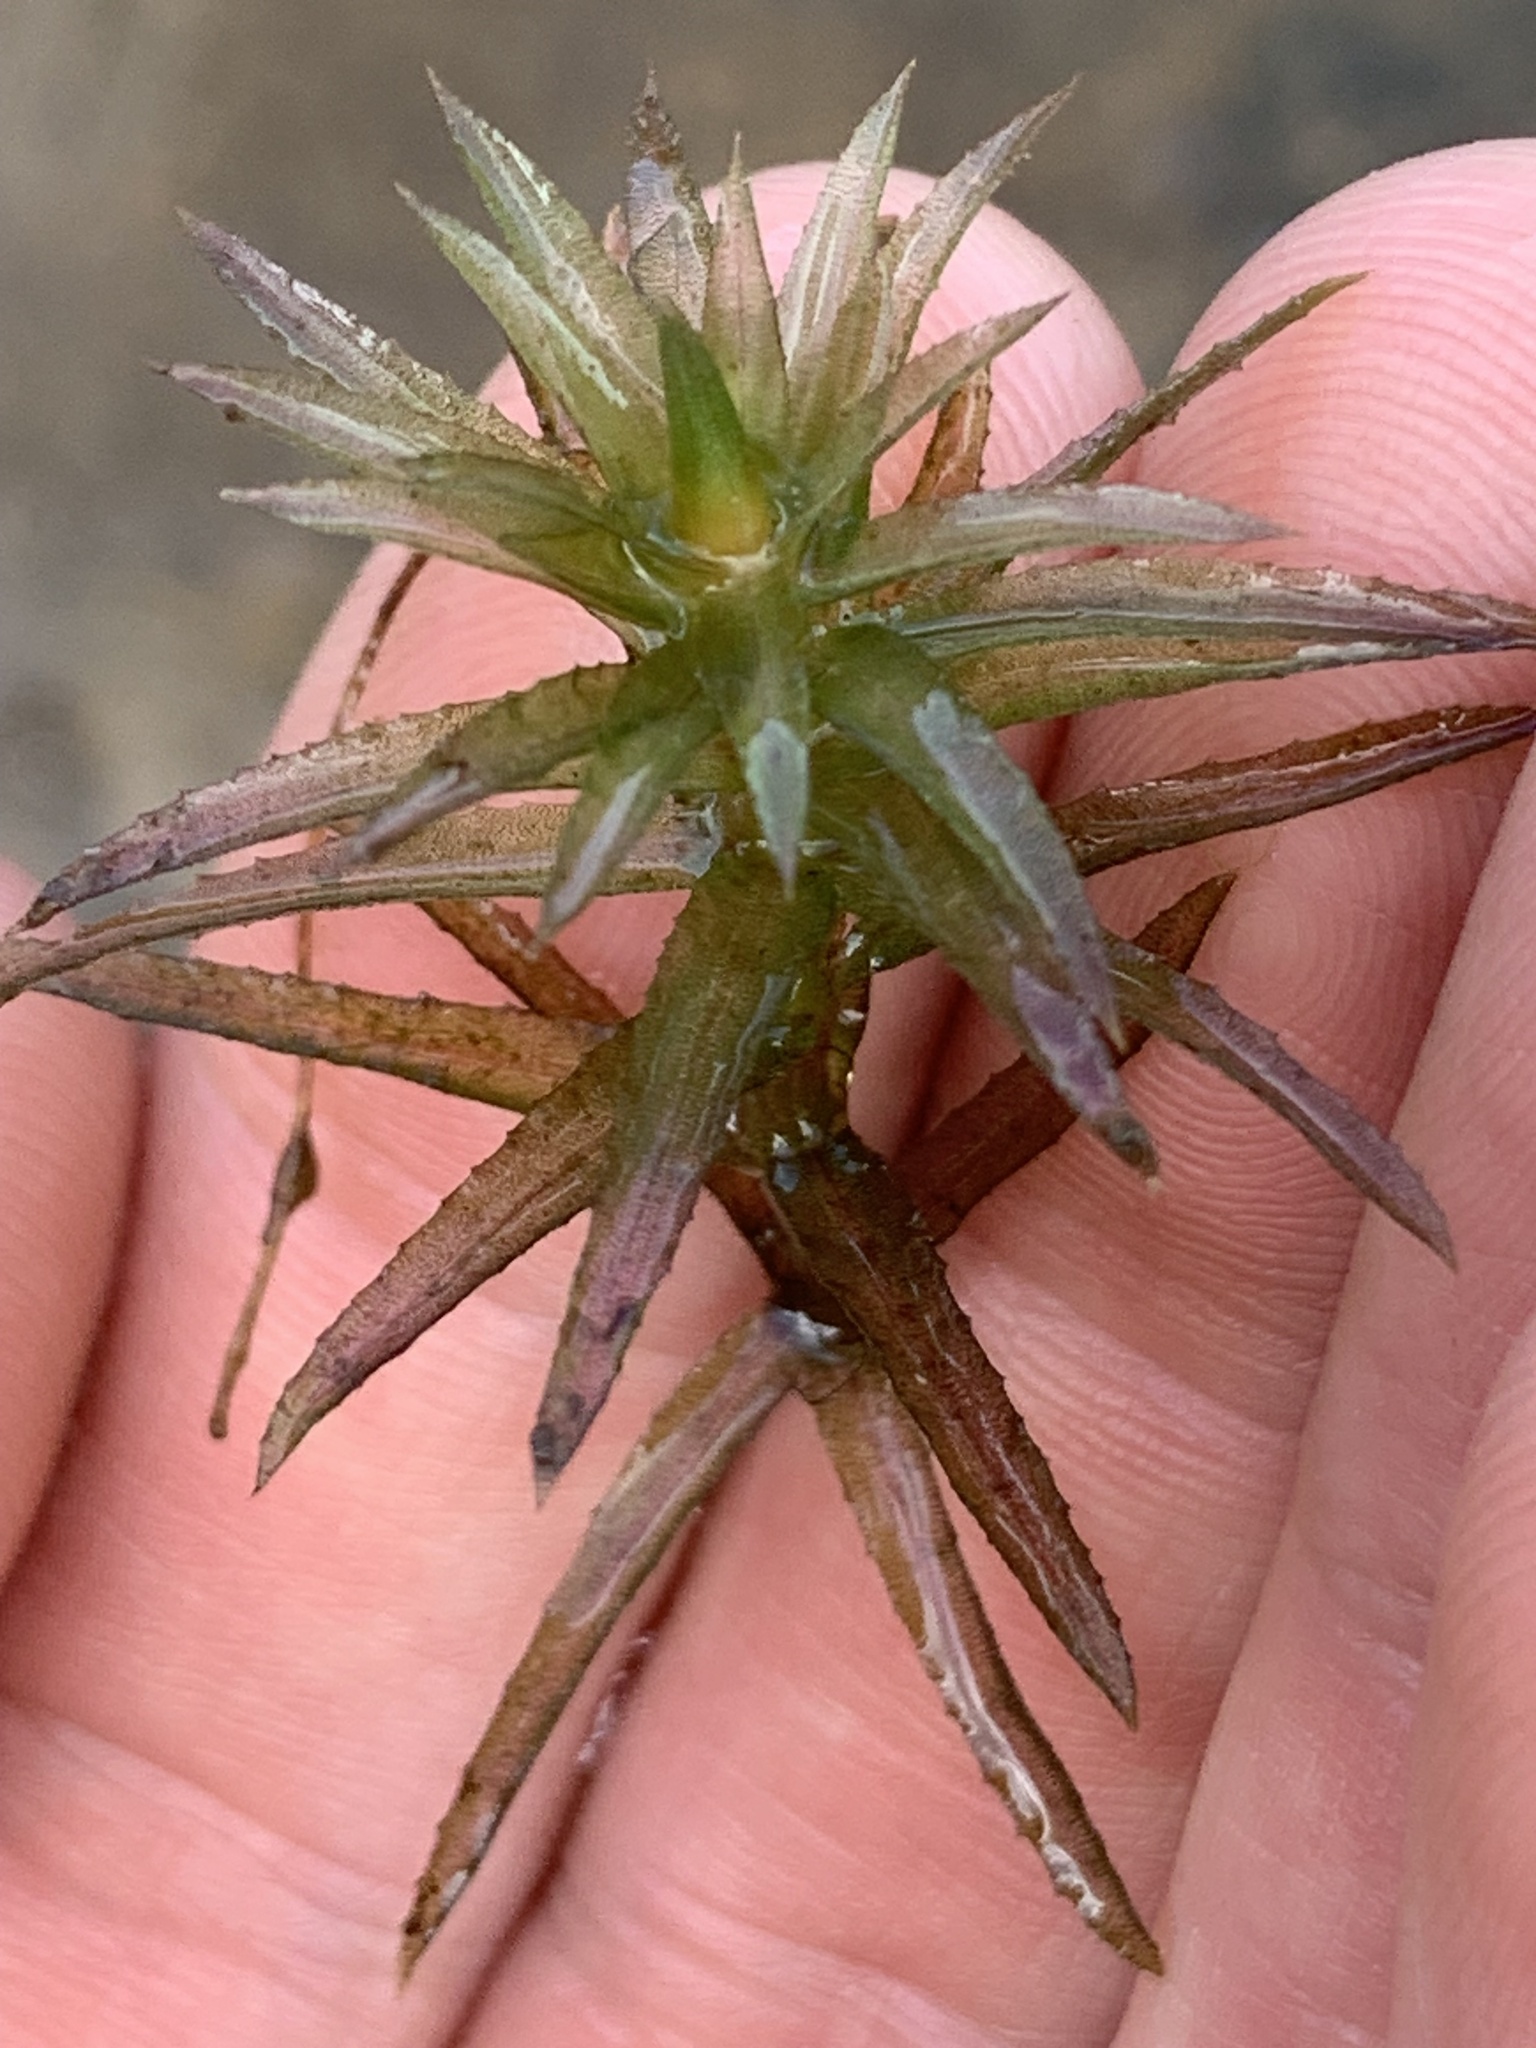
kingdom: Plantae
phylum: Tracheophyta
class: Liliopsida
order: Alismatales
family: Hydrocharitaceae
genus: Hydrilla
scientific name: Hydrilla verticillata
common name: Florida-elodea
